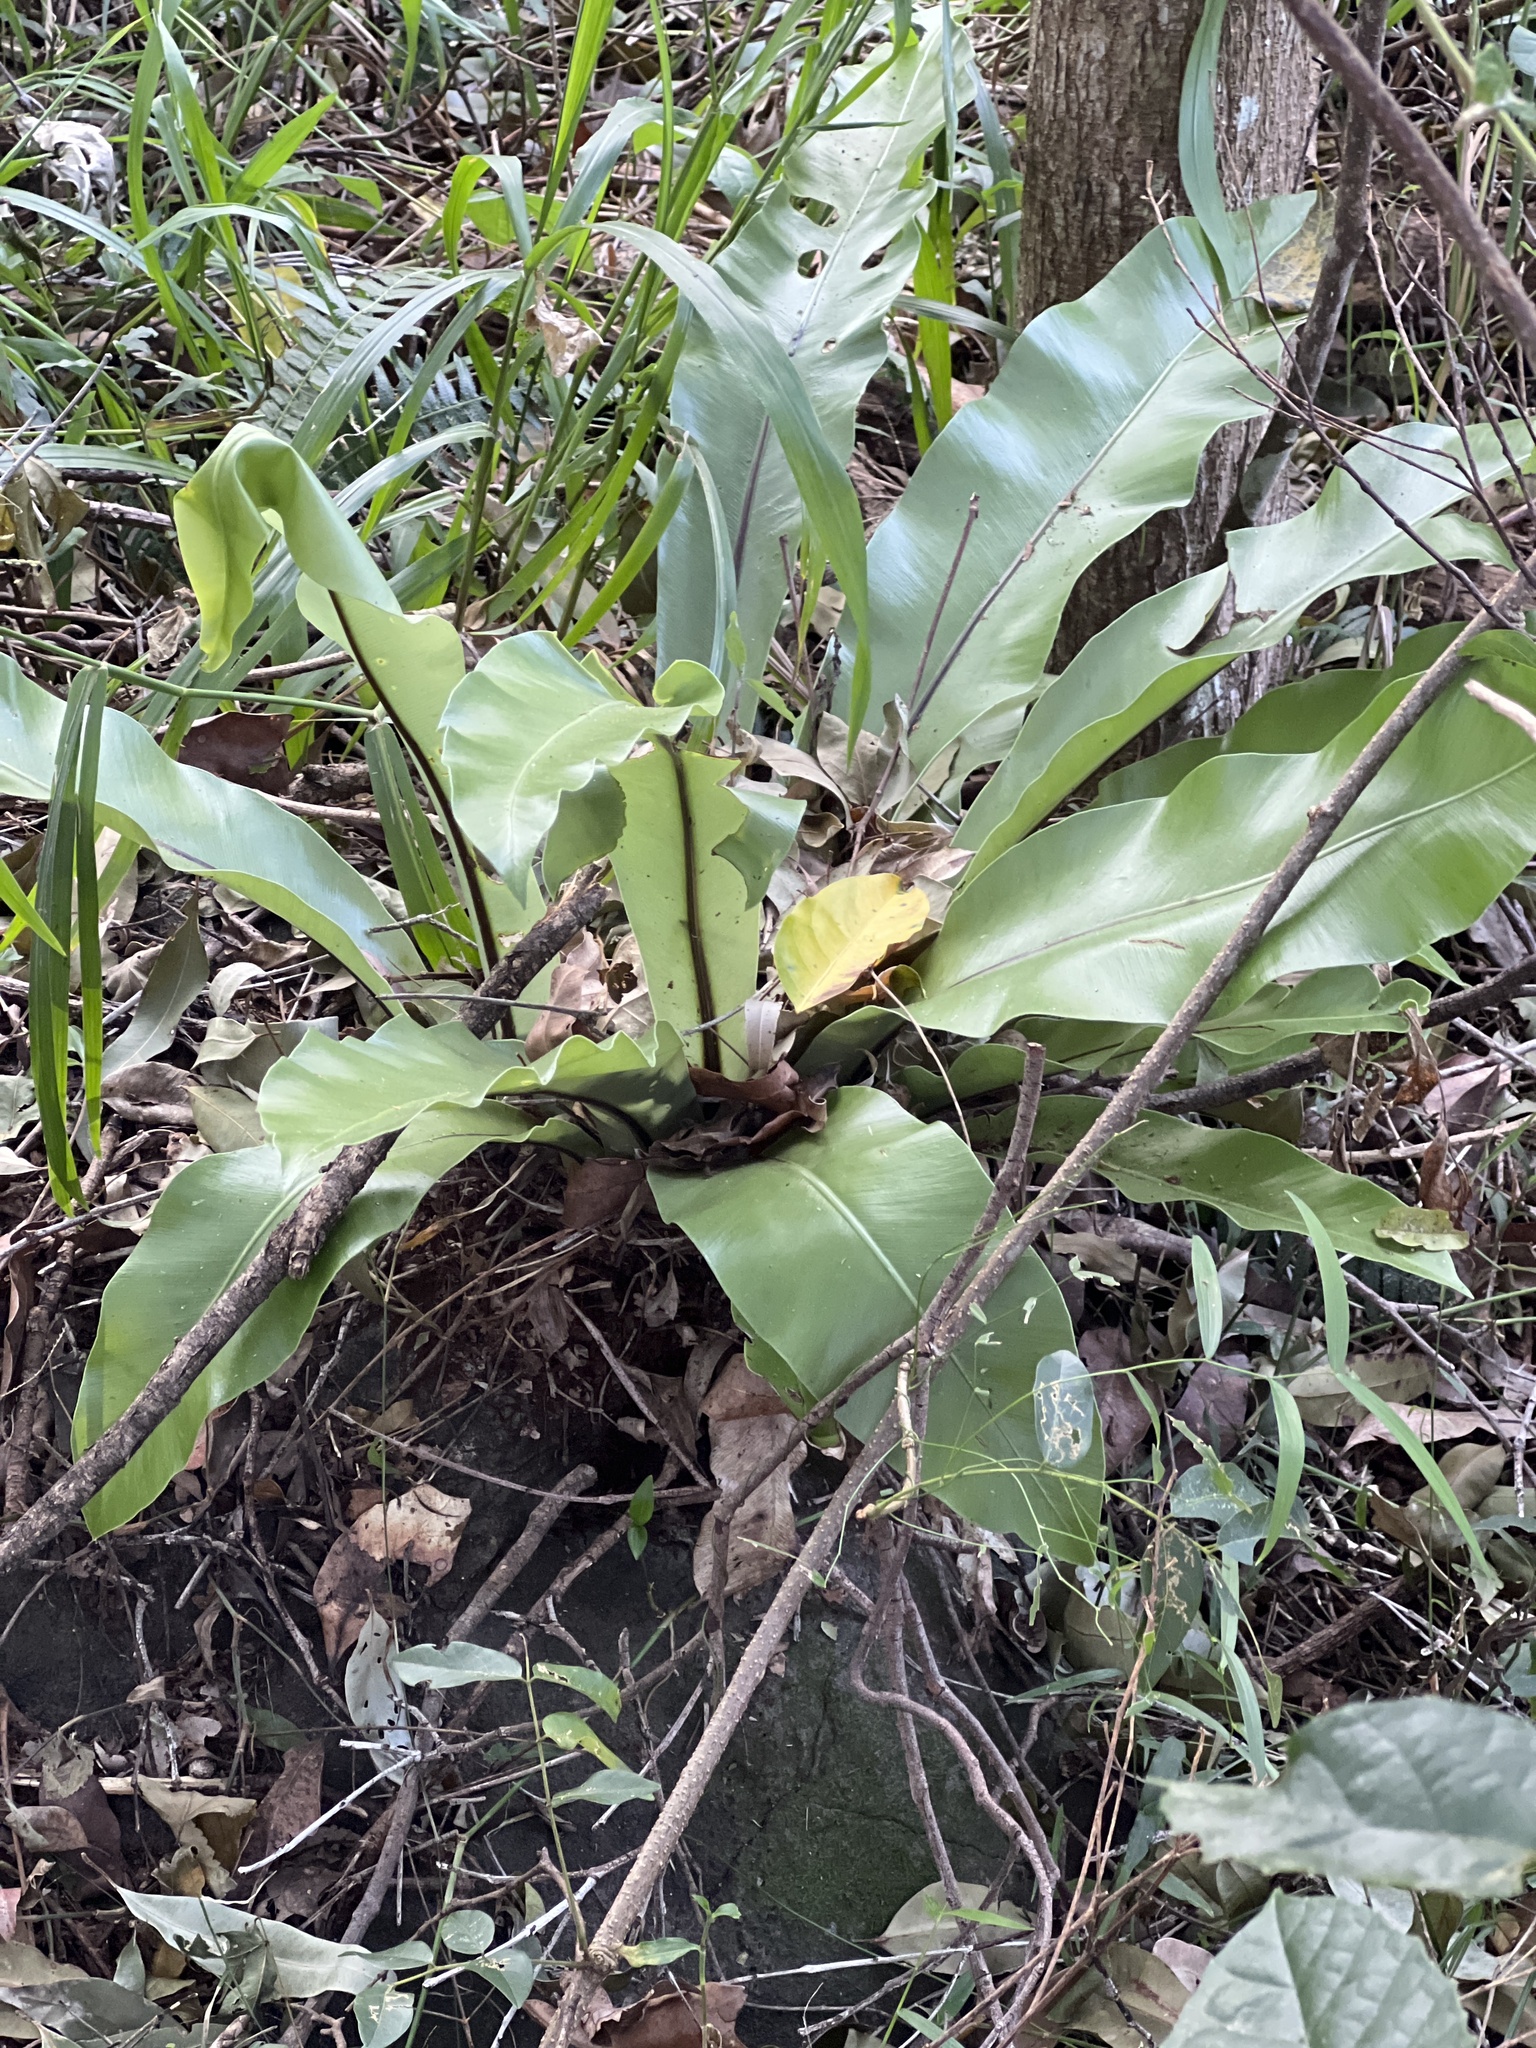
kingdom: Plantae
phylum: Tracheophyta
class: Polypodiopsida
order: Polypodiales
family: Aspleniaceae
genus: Asplenium
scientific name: Asplenium australasicum
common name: Bird's-nest fern
